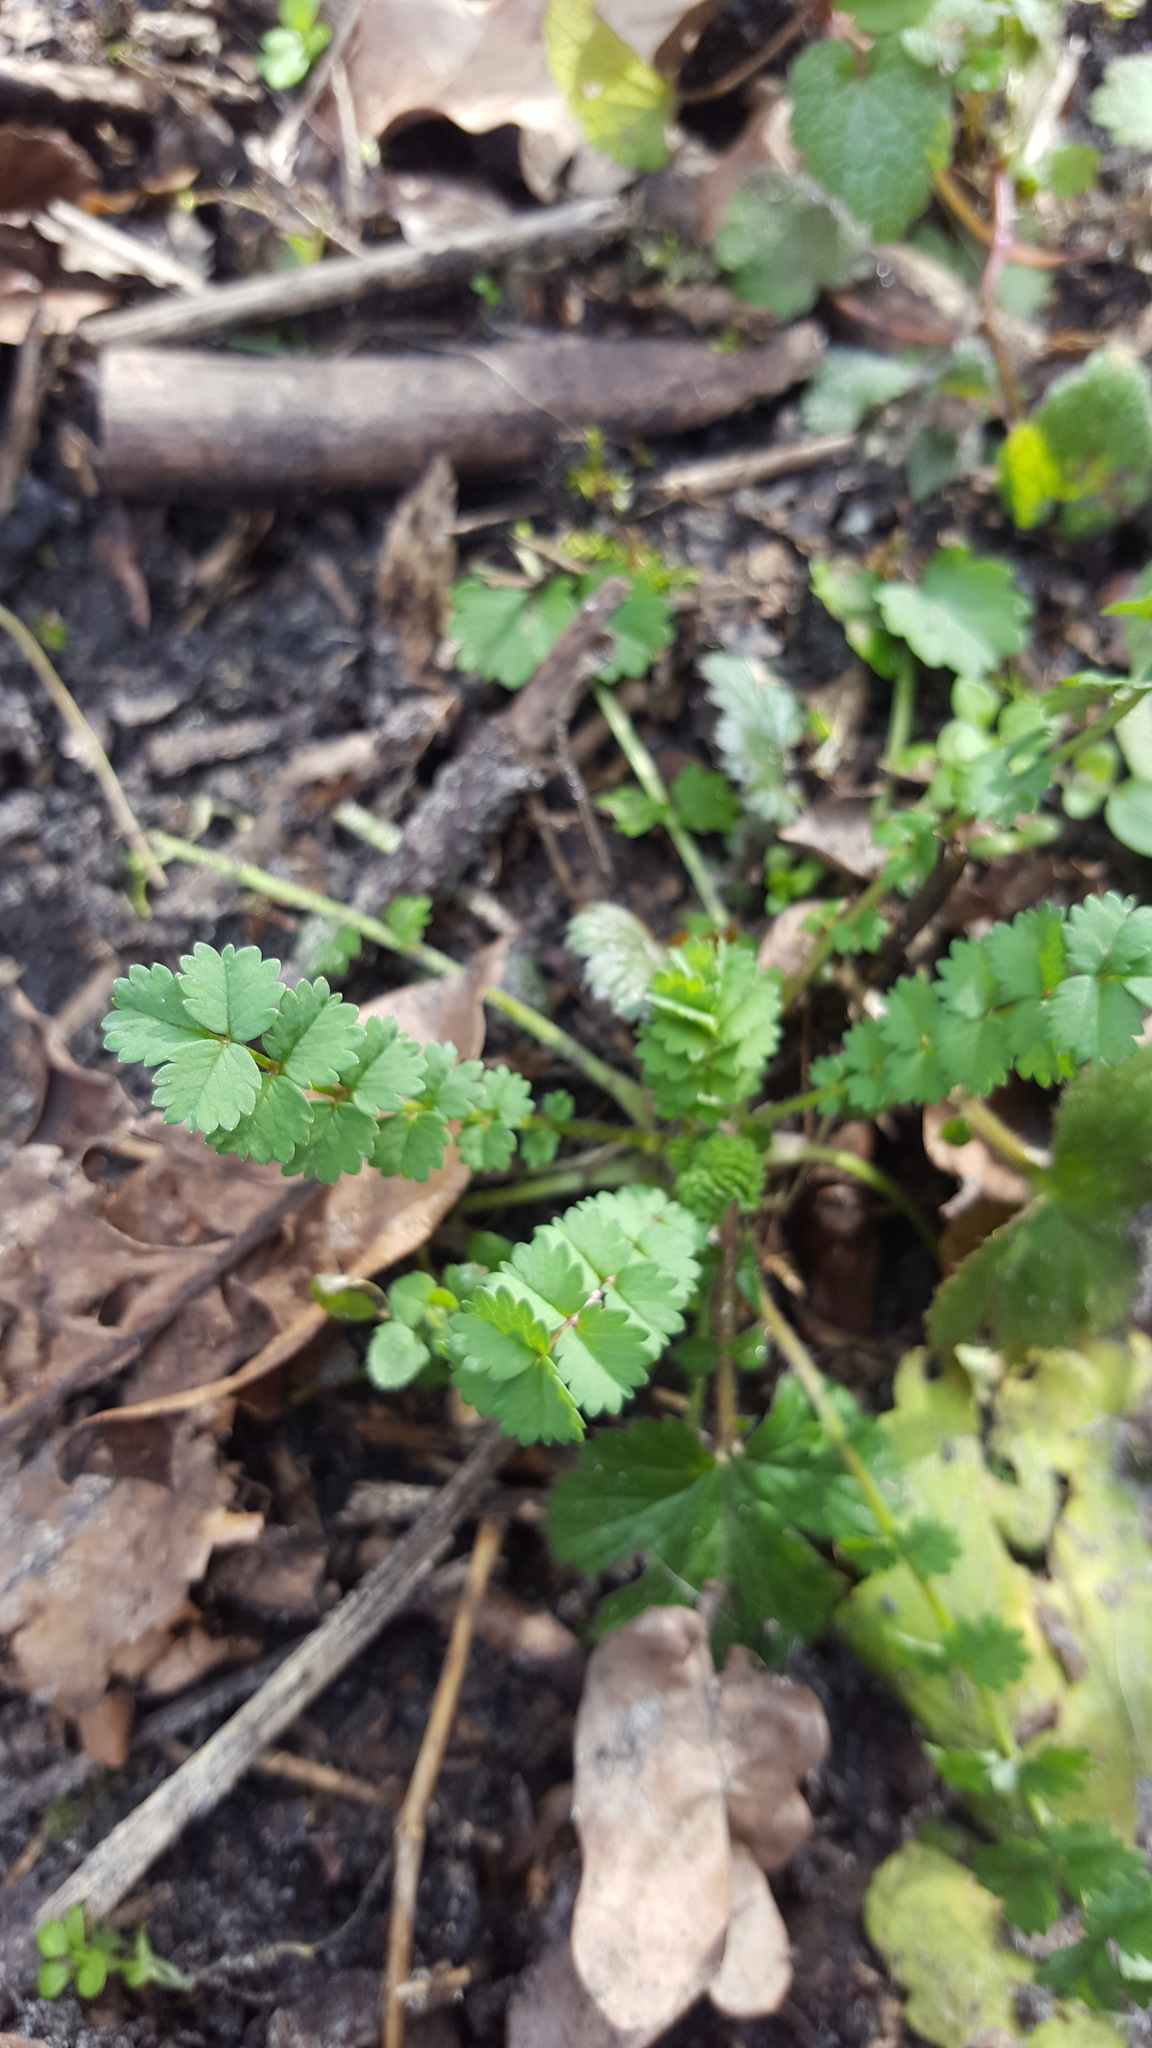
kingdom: Plantae
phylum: Tracheophyta
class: Magnoliopsida
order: Rosales
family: Rosaceae
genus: Poterium
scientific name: Poterium sanguisorba
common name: Salad burnet
